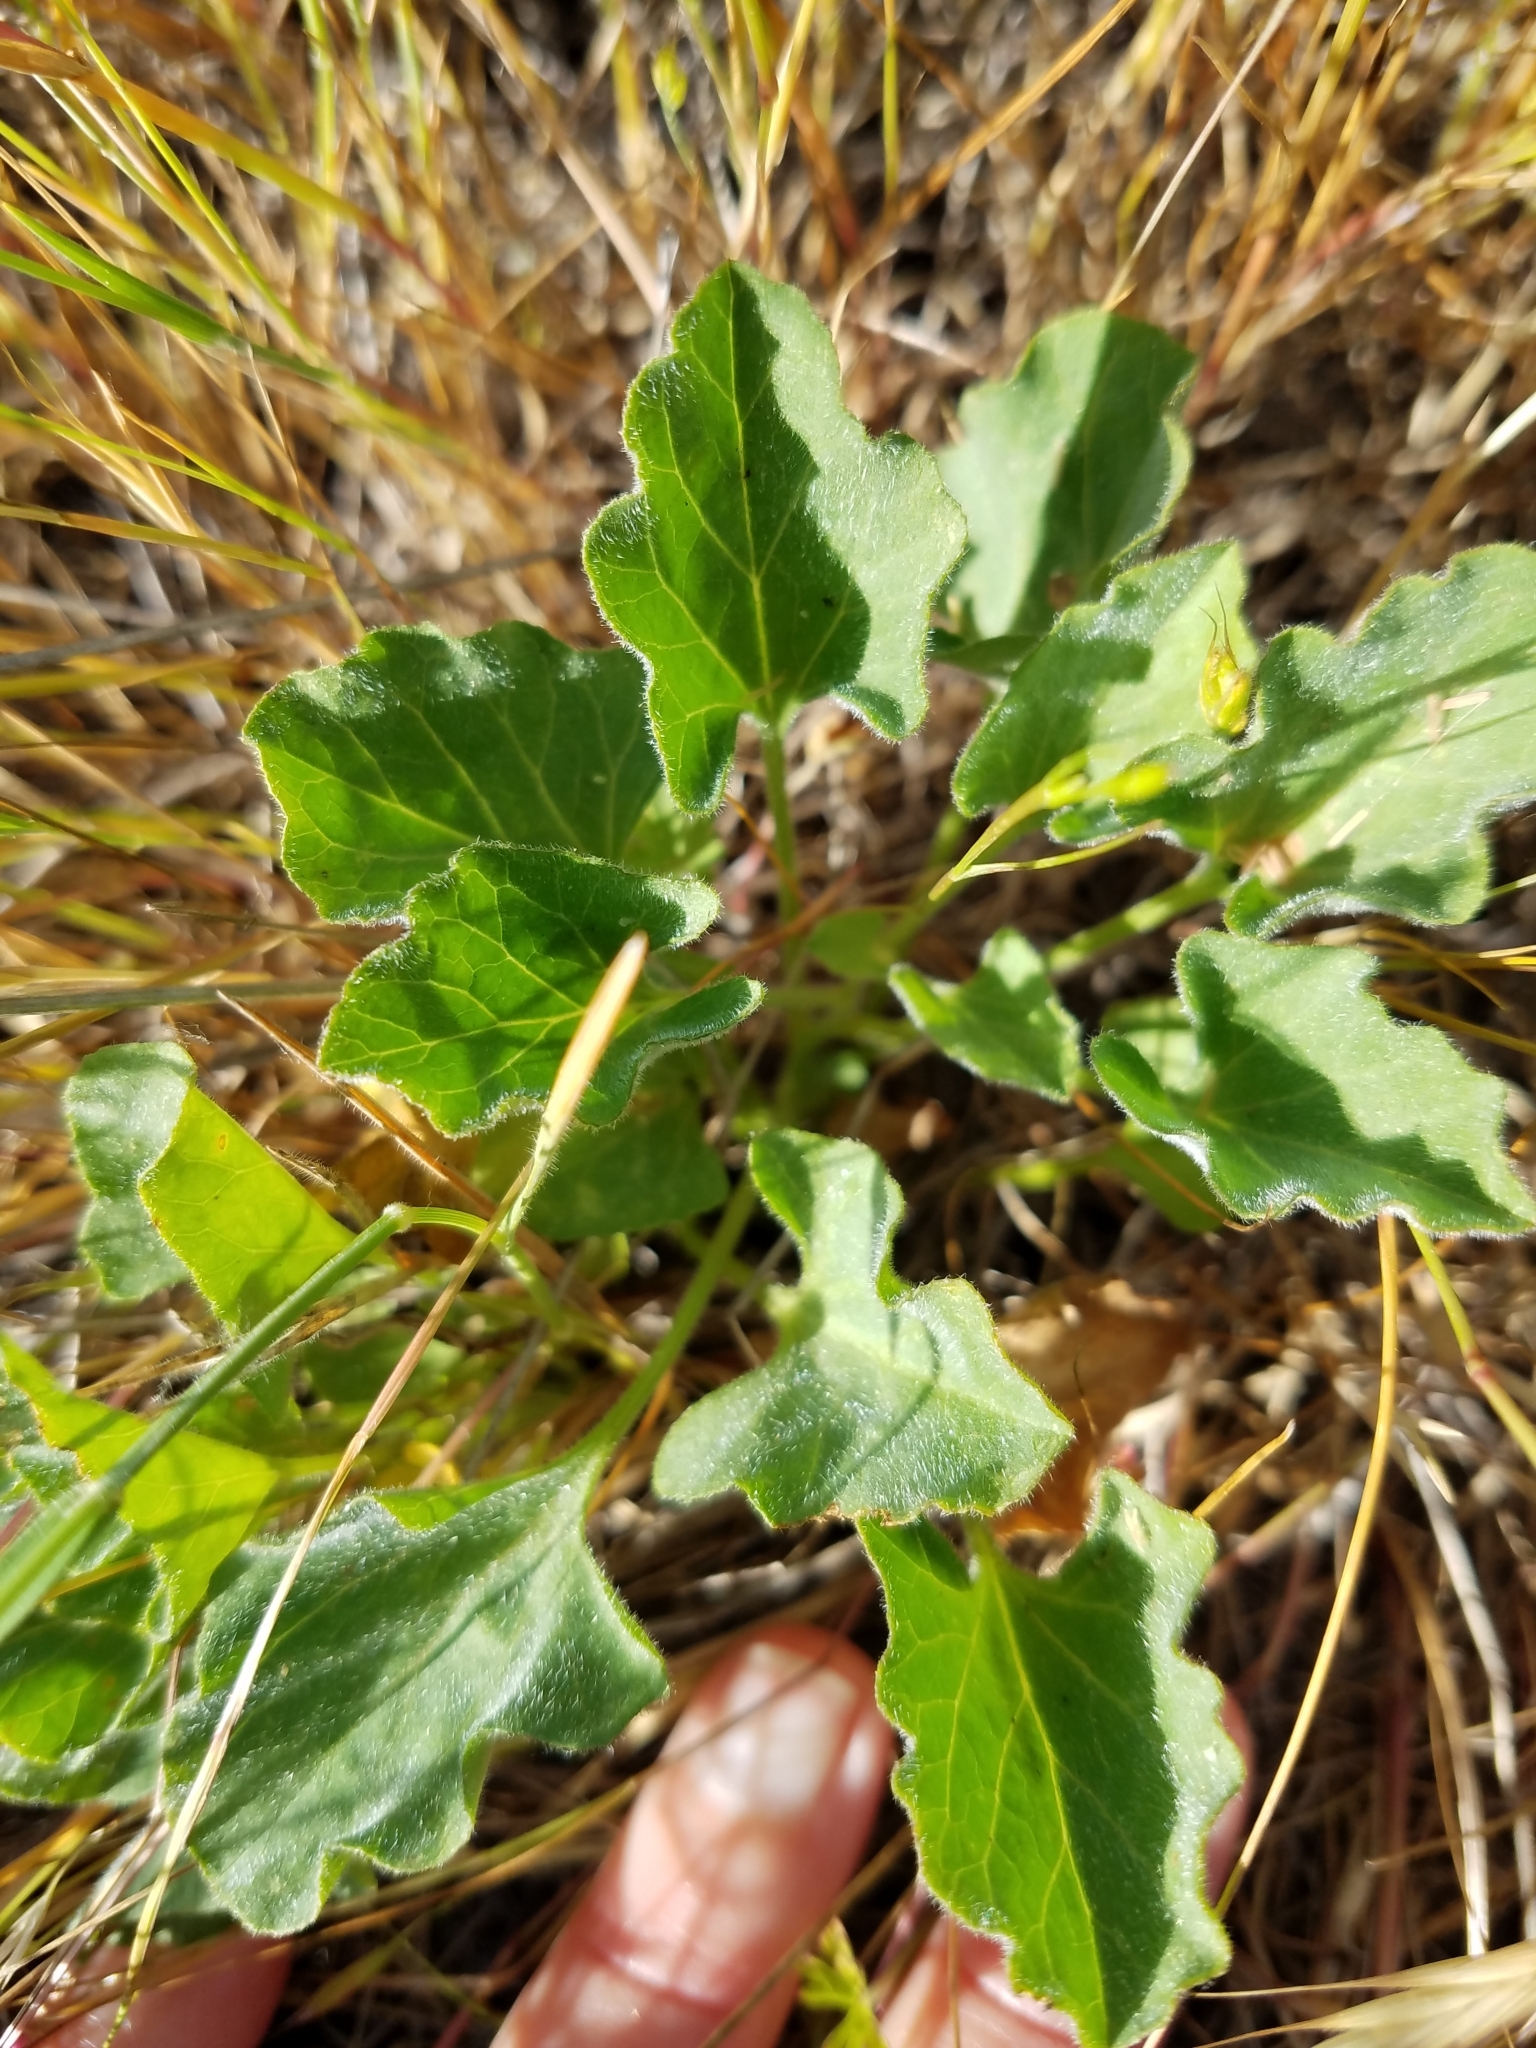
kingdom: Plantae
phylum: Tracheophyta
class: Magnoliopsida
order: Solanales
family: Convolvulaceae
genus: Calystegia
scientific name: Calystegia subacaulis
